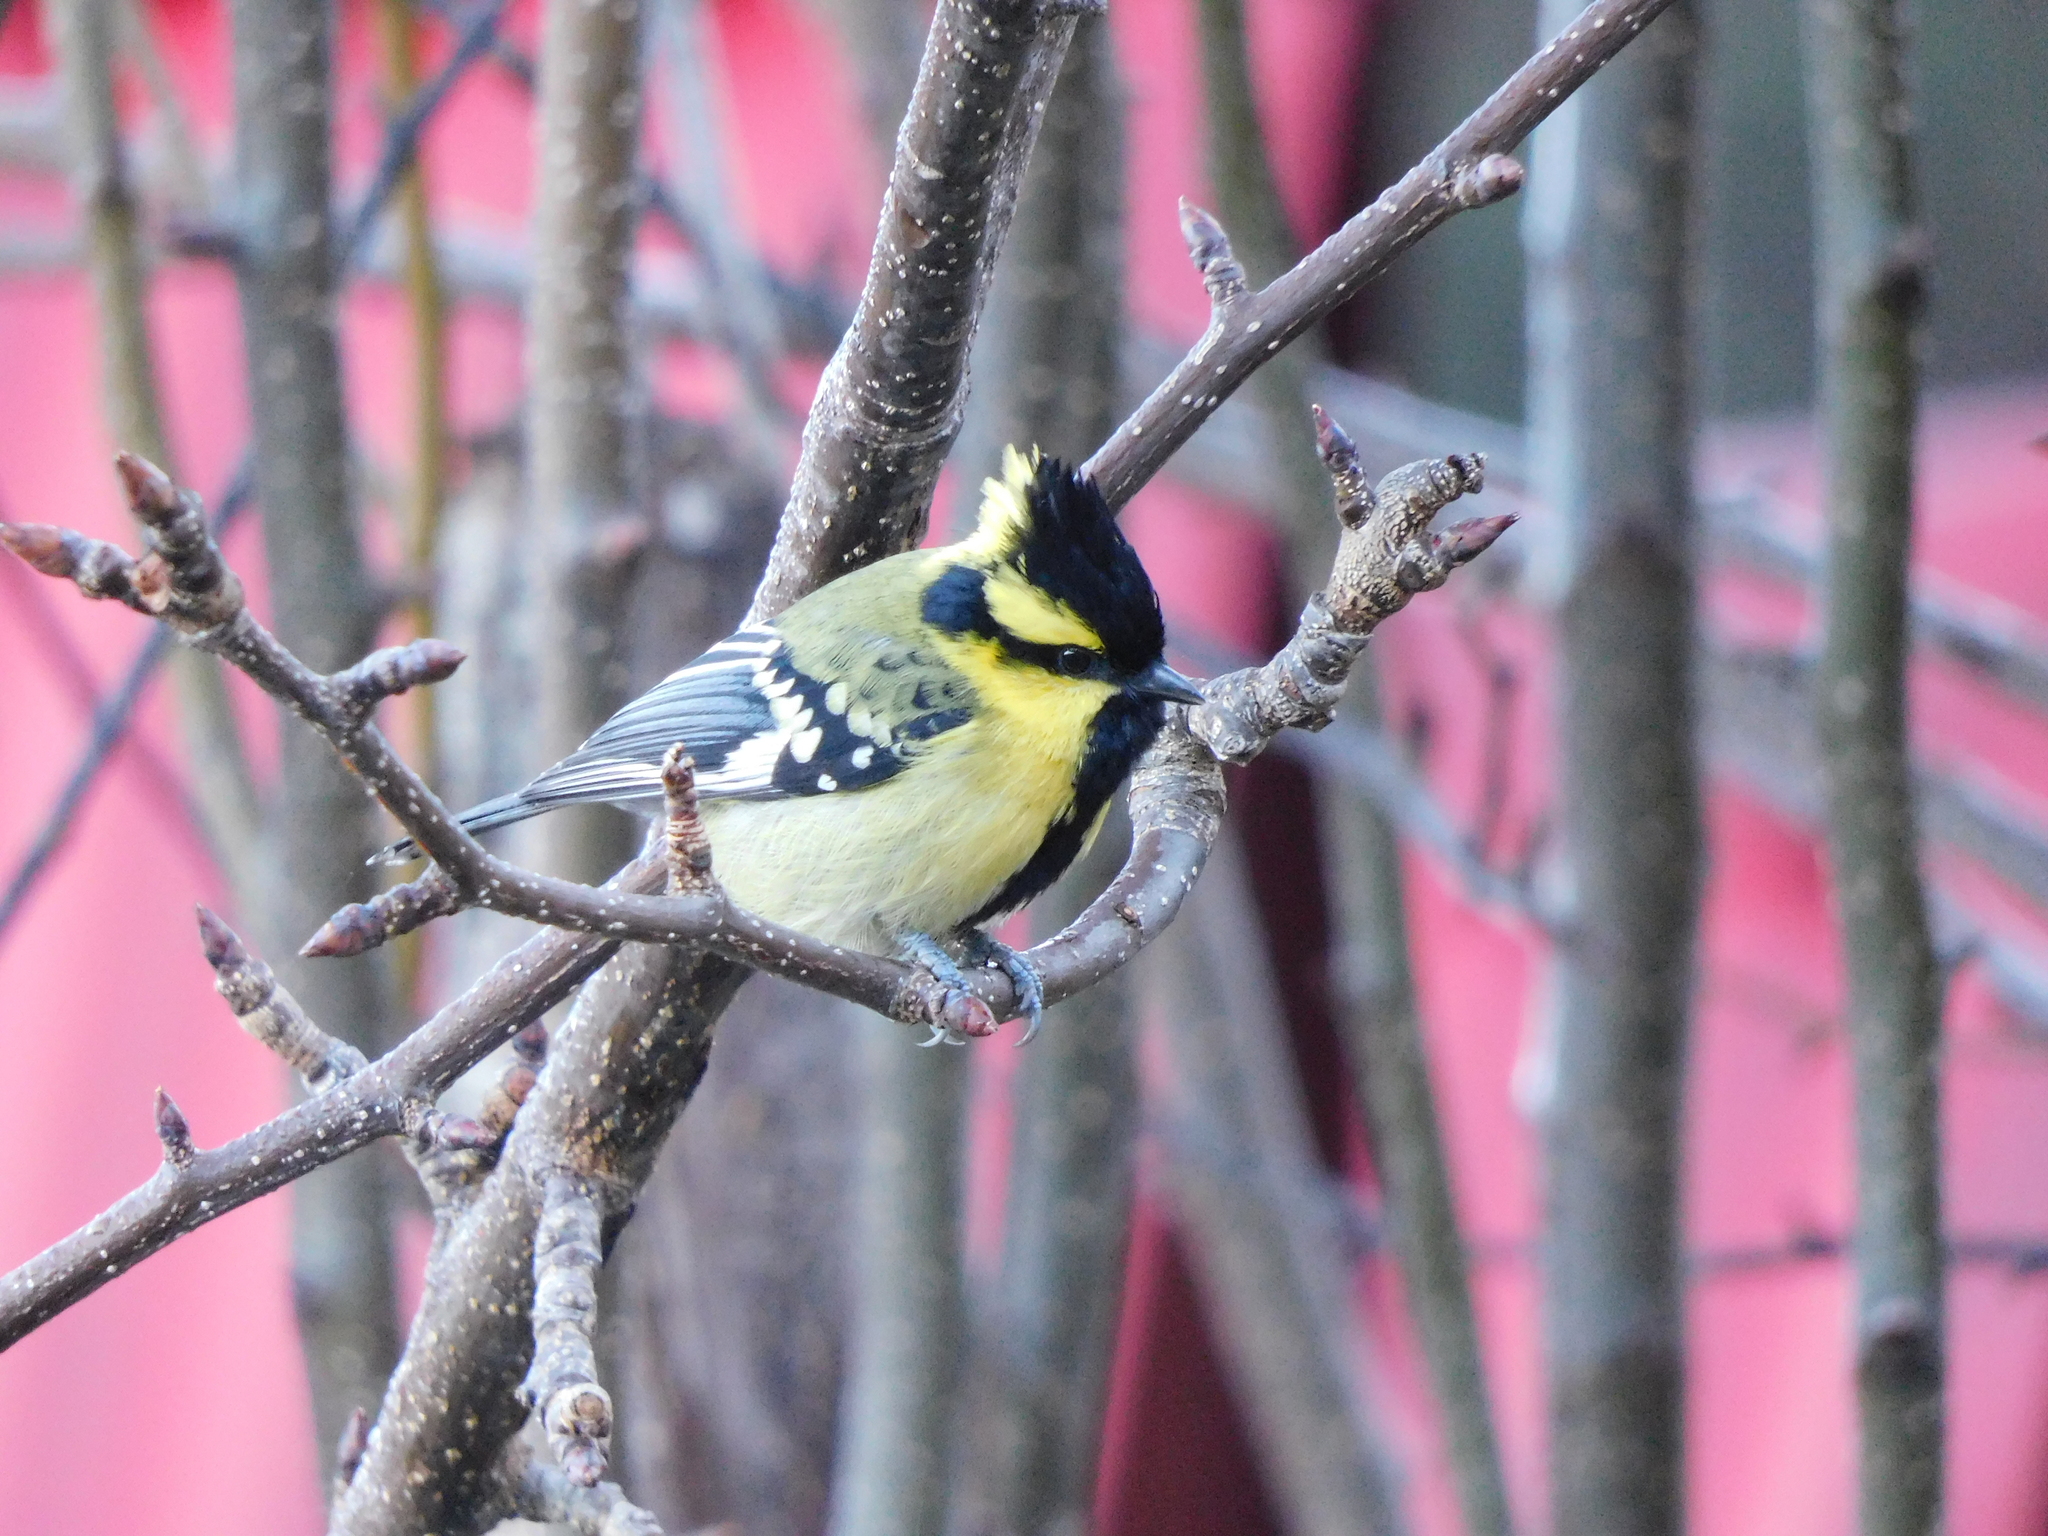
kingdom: Animalia
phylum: Chordata
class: Aves
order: Passeriformes
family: Paridae
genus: Parus
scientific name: Parus xanthogenys
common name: Black-lored tit
